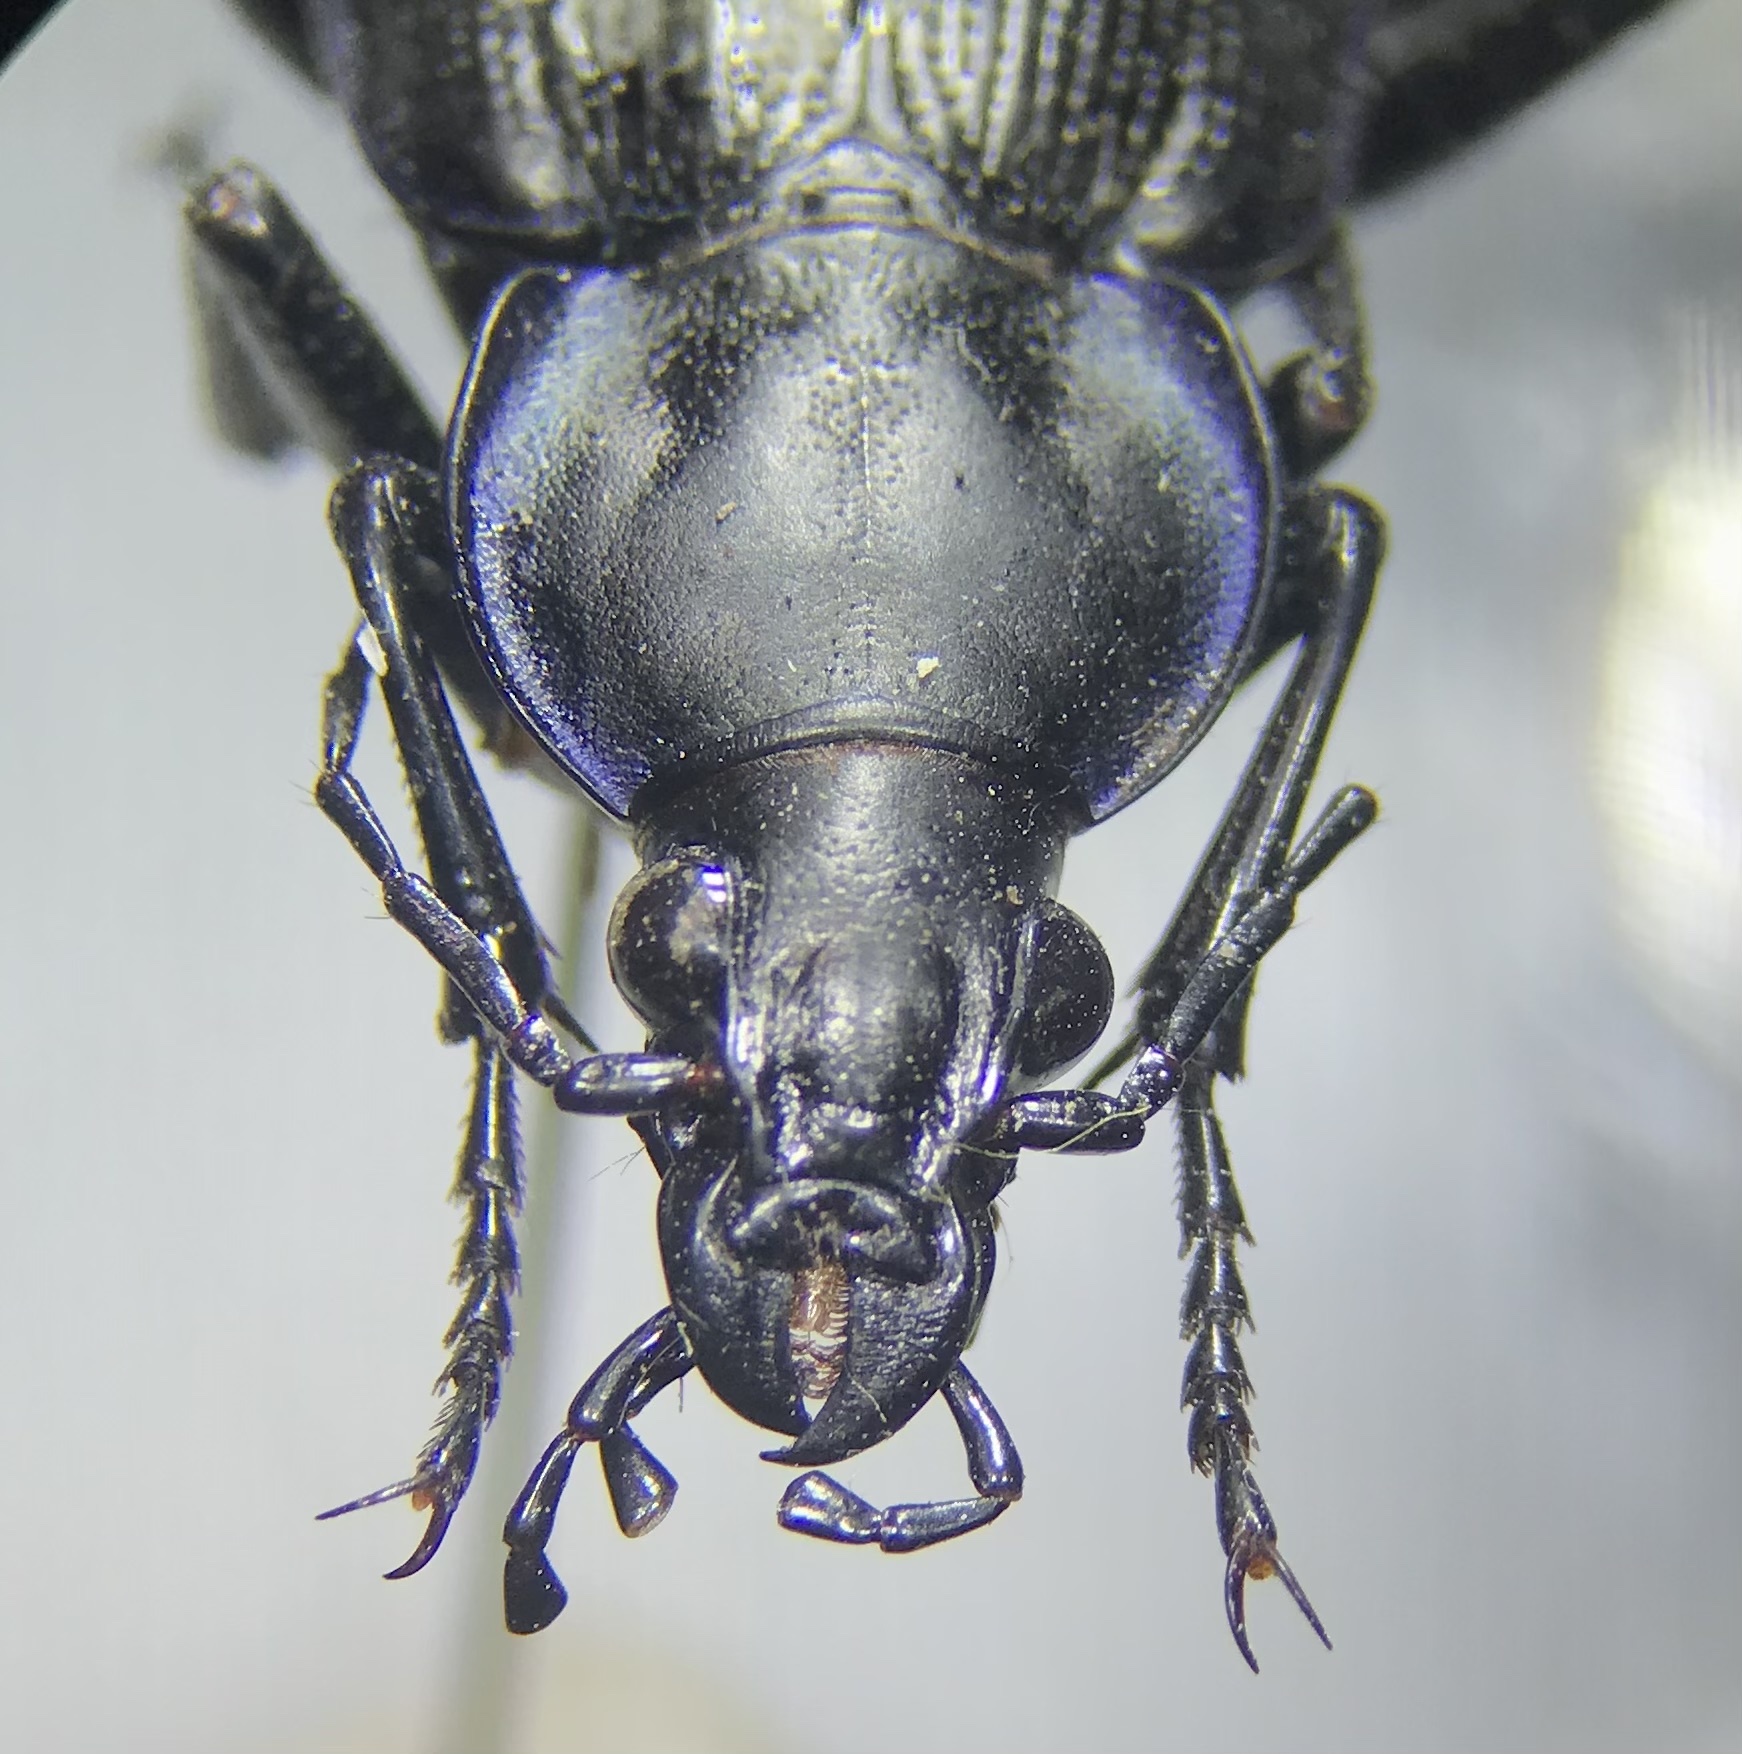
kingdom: Animalia
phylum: Arthropoda
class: Insecta
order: Coleoptera
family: Carabidae
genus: Calosoma
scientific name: Calosoma externum
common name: Narrow searcher beetle
